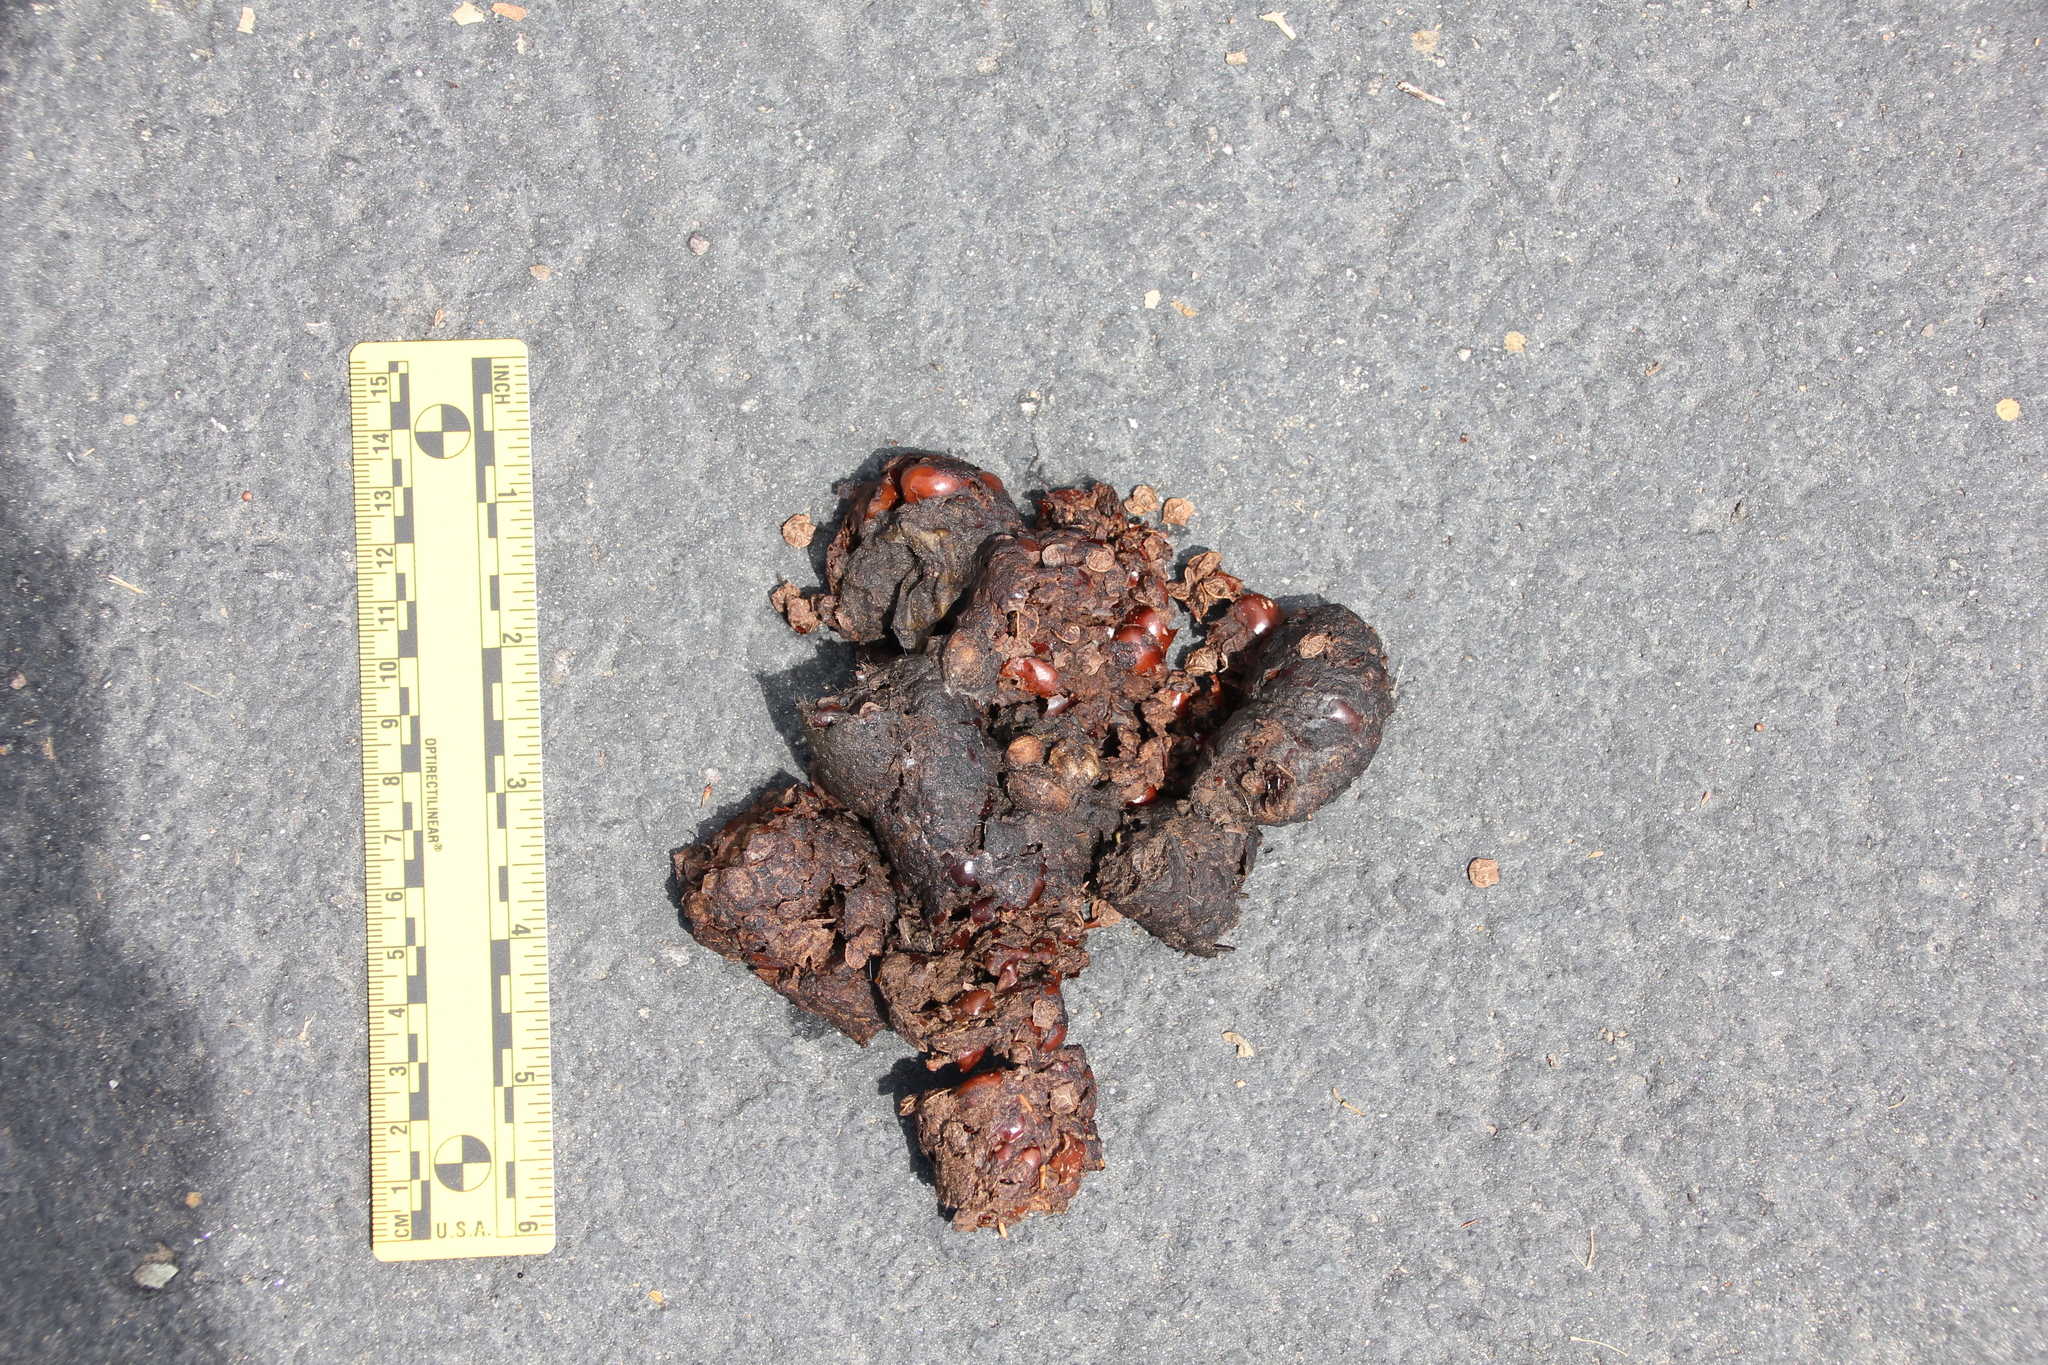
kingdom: Animalia
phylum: Chordata
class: Mammalia
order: Carnivora
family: Canidae
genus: Canis
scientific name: Canis latrans
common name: Coyote
